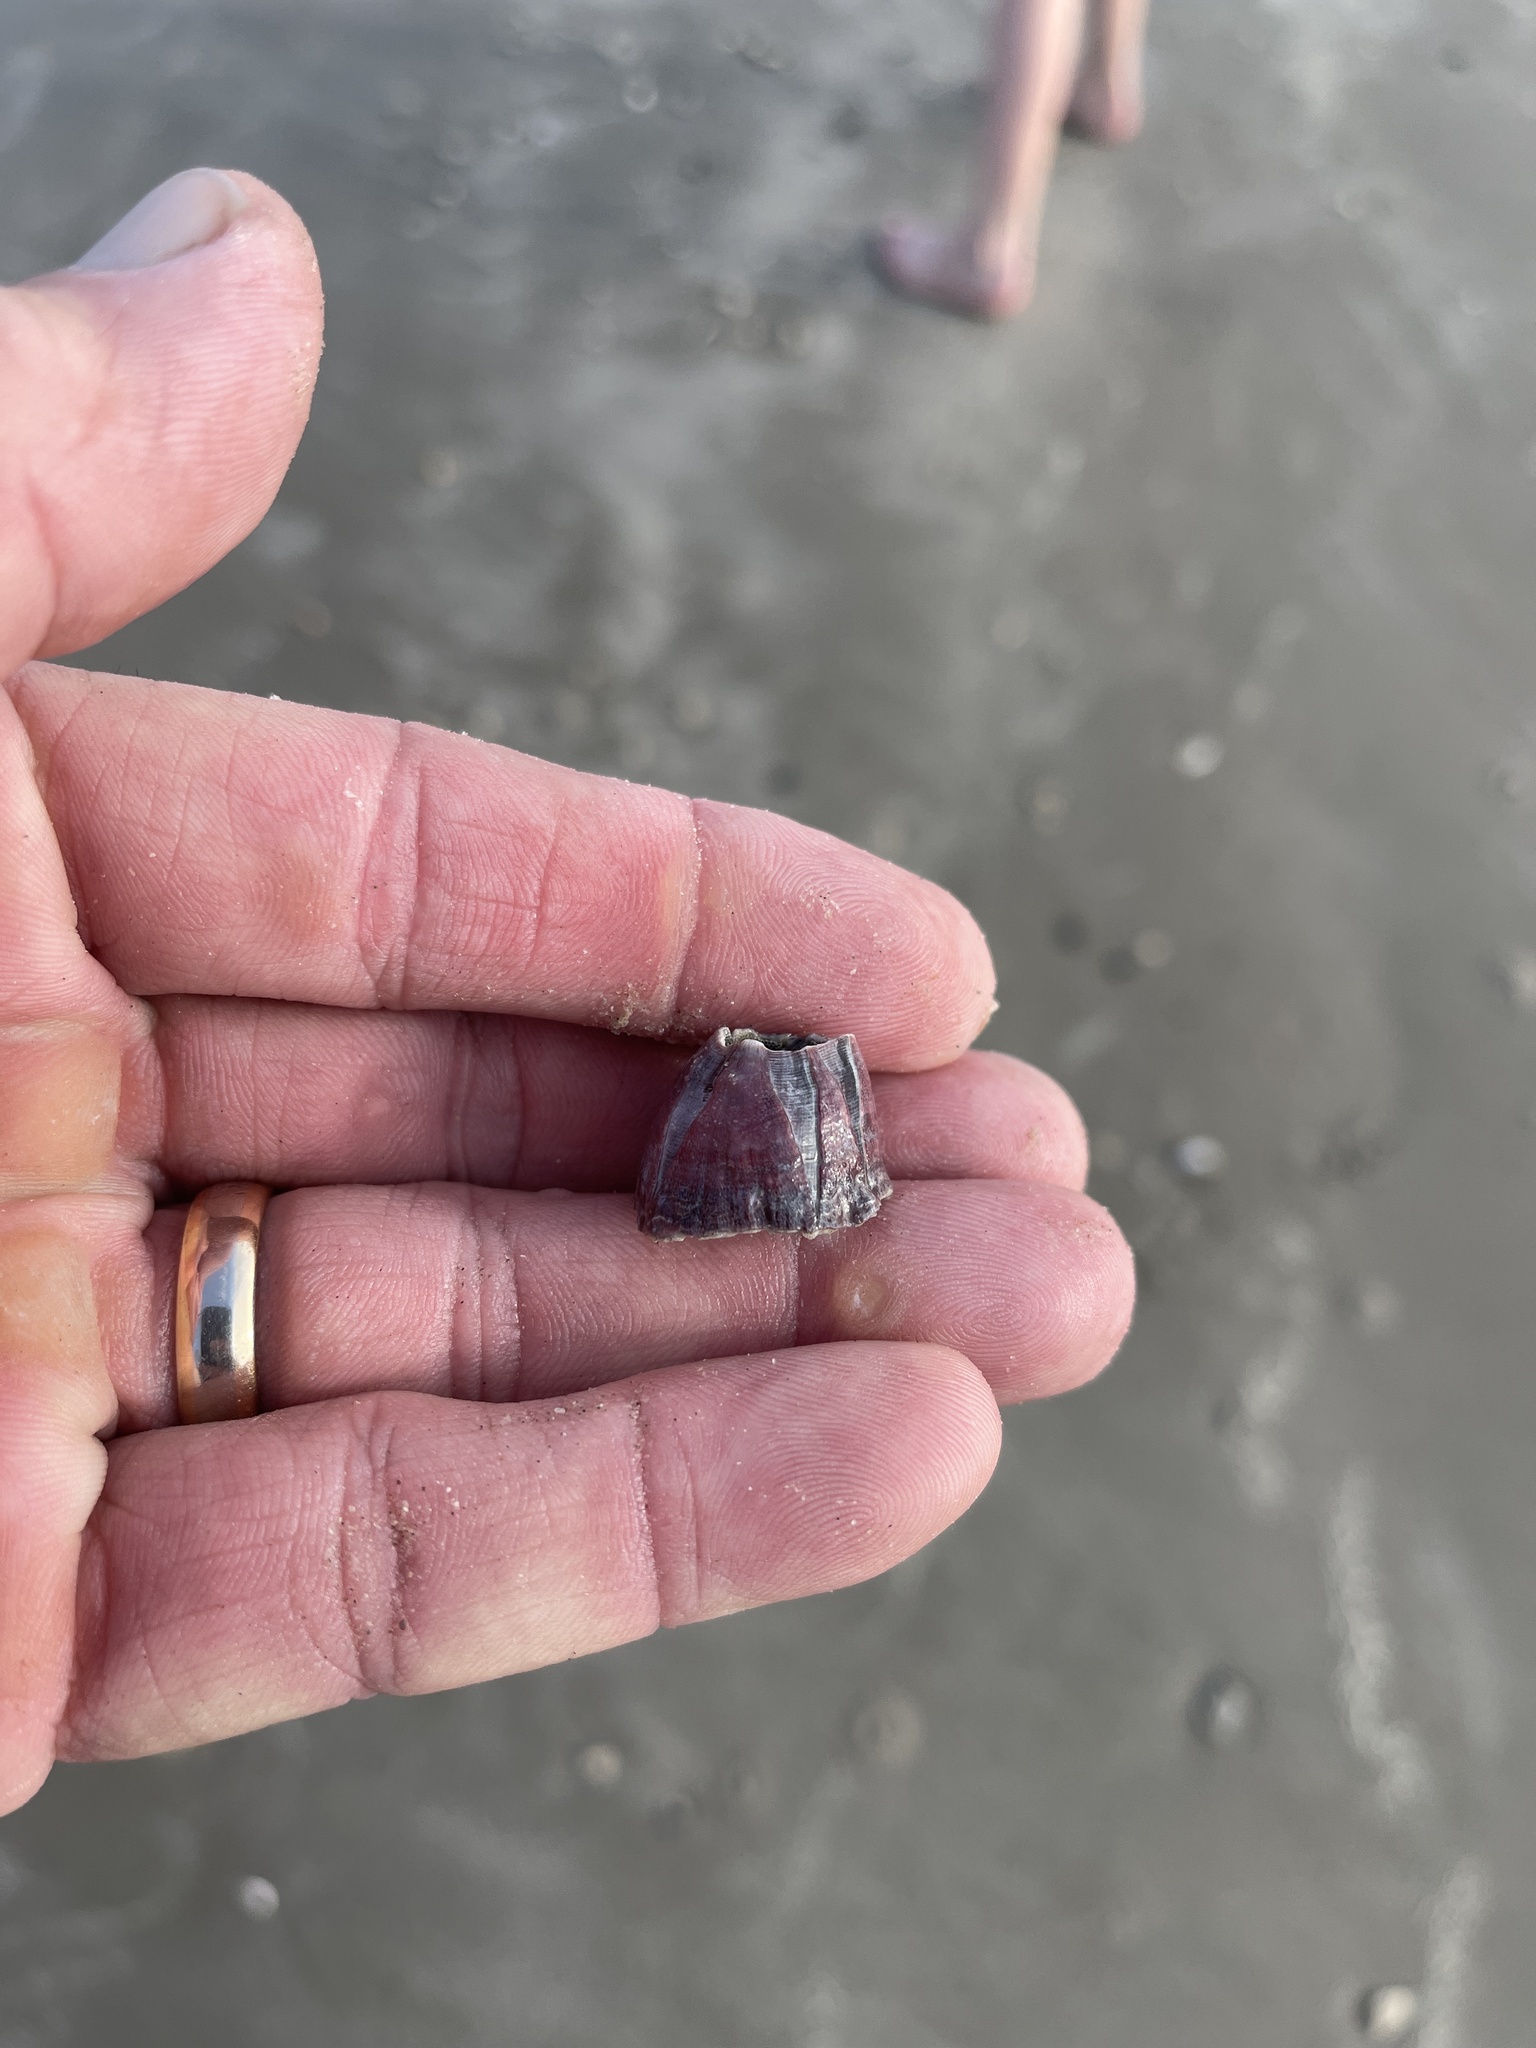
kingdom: Animalia
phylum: Arthropoda
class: Maxillopoda
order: Sessilia
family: Balanidae
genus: Megabalanus
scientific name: Megabalanus tintinnabulum
